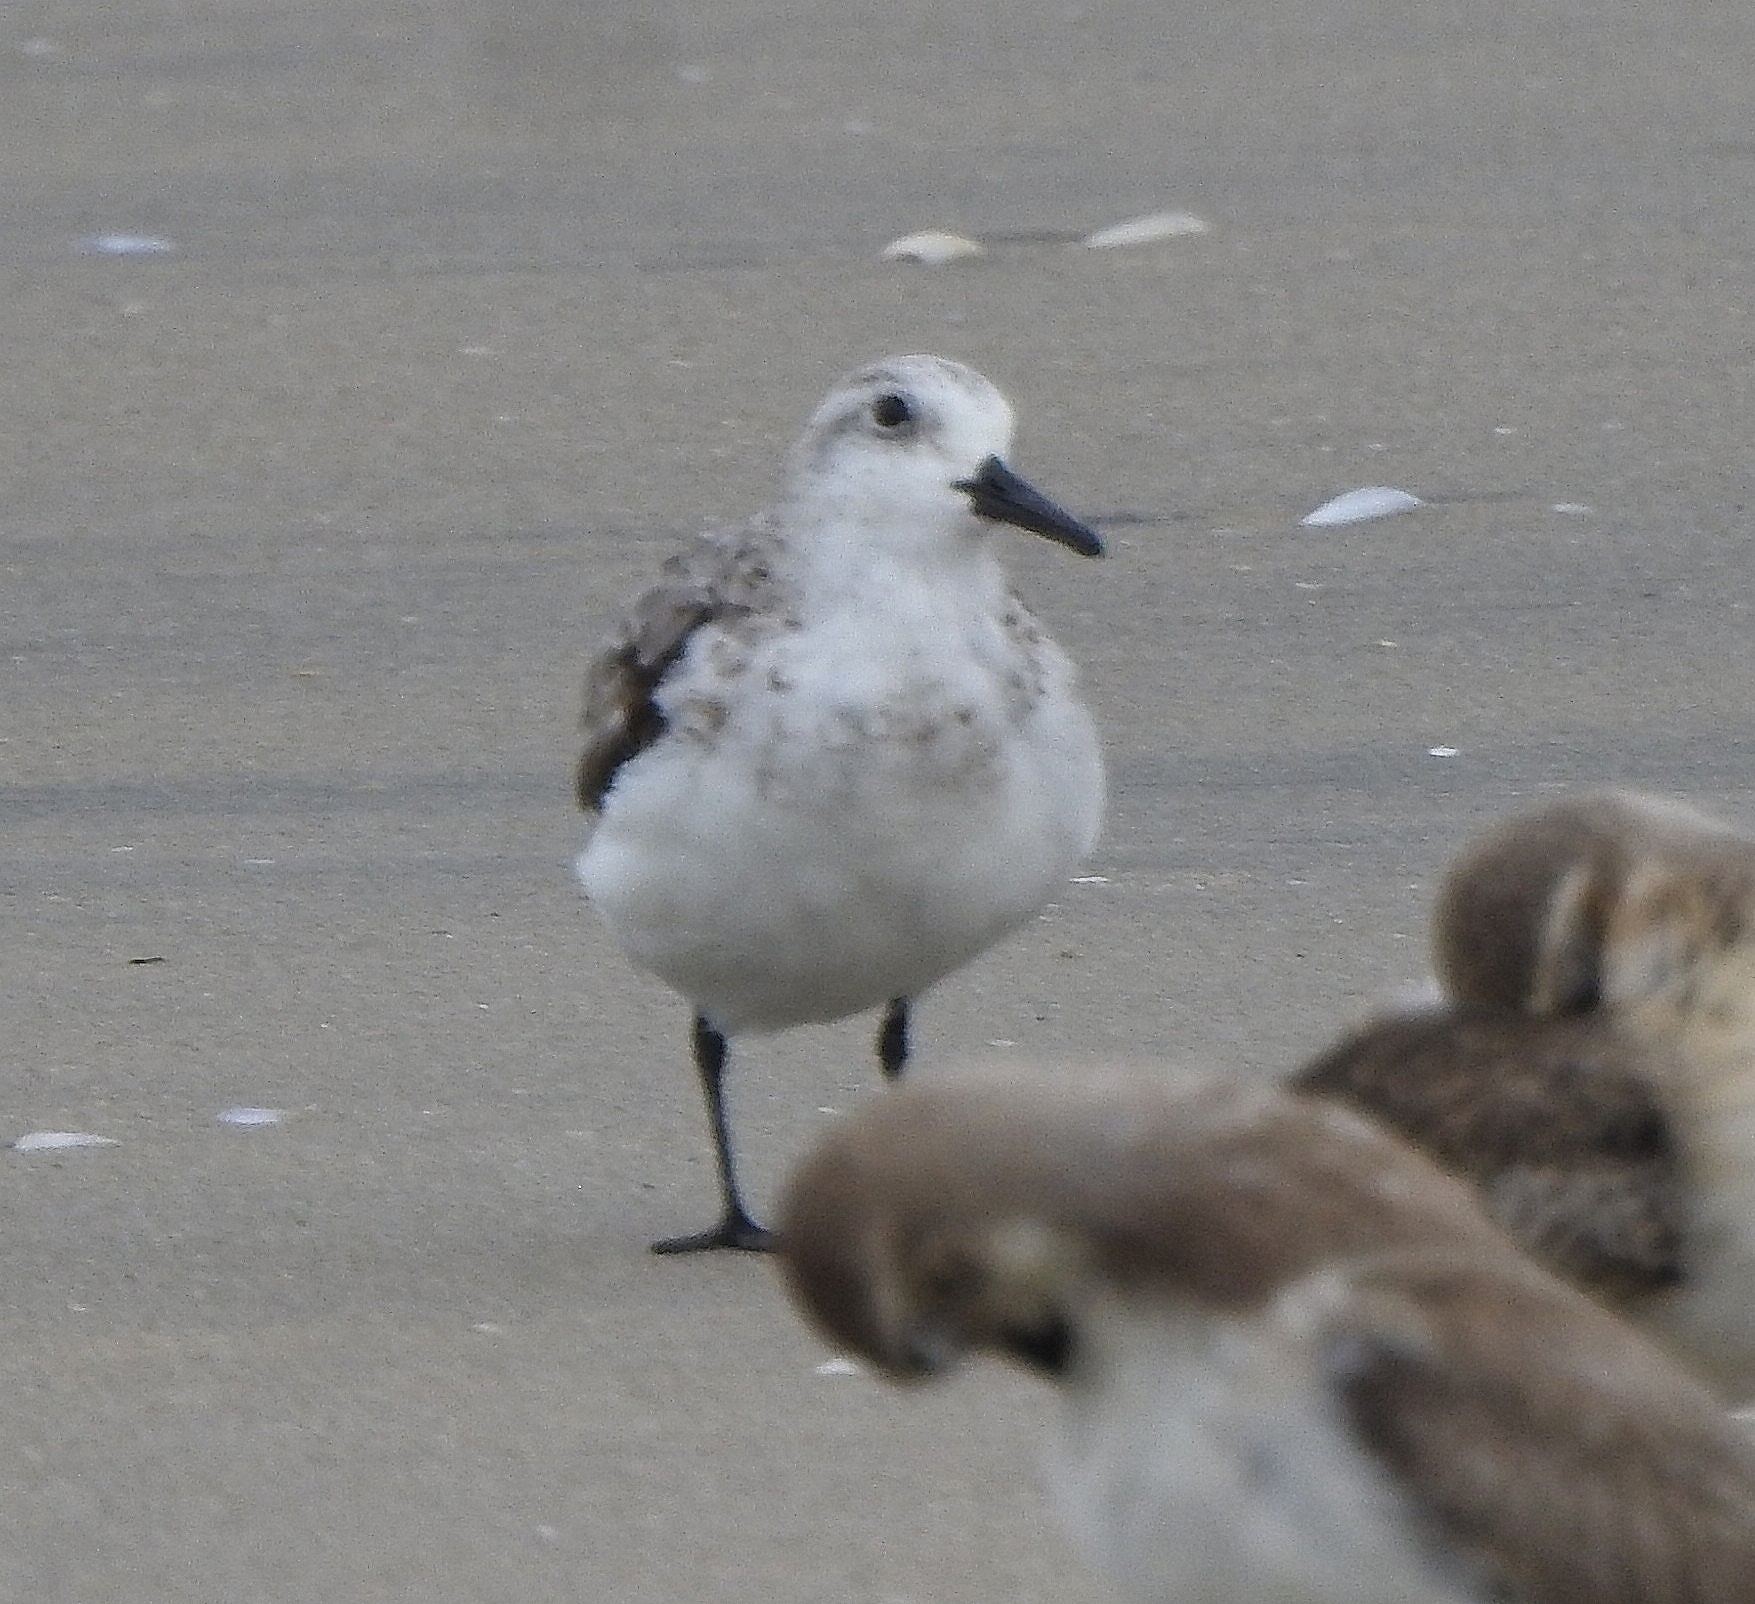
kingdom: Animalia
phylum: Chordata
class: Aves
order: Charadriiformes
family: Scolopacidae
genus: Calidris
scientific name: Calidris alba
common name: Sanderling
